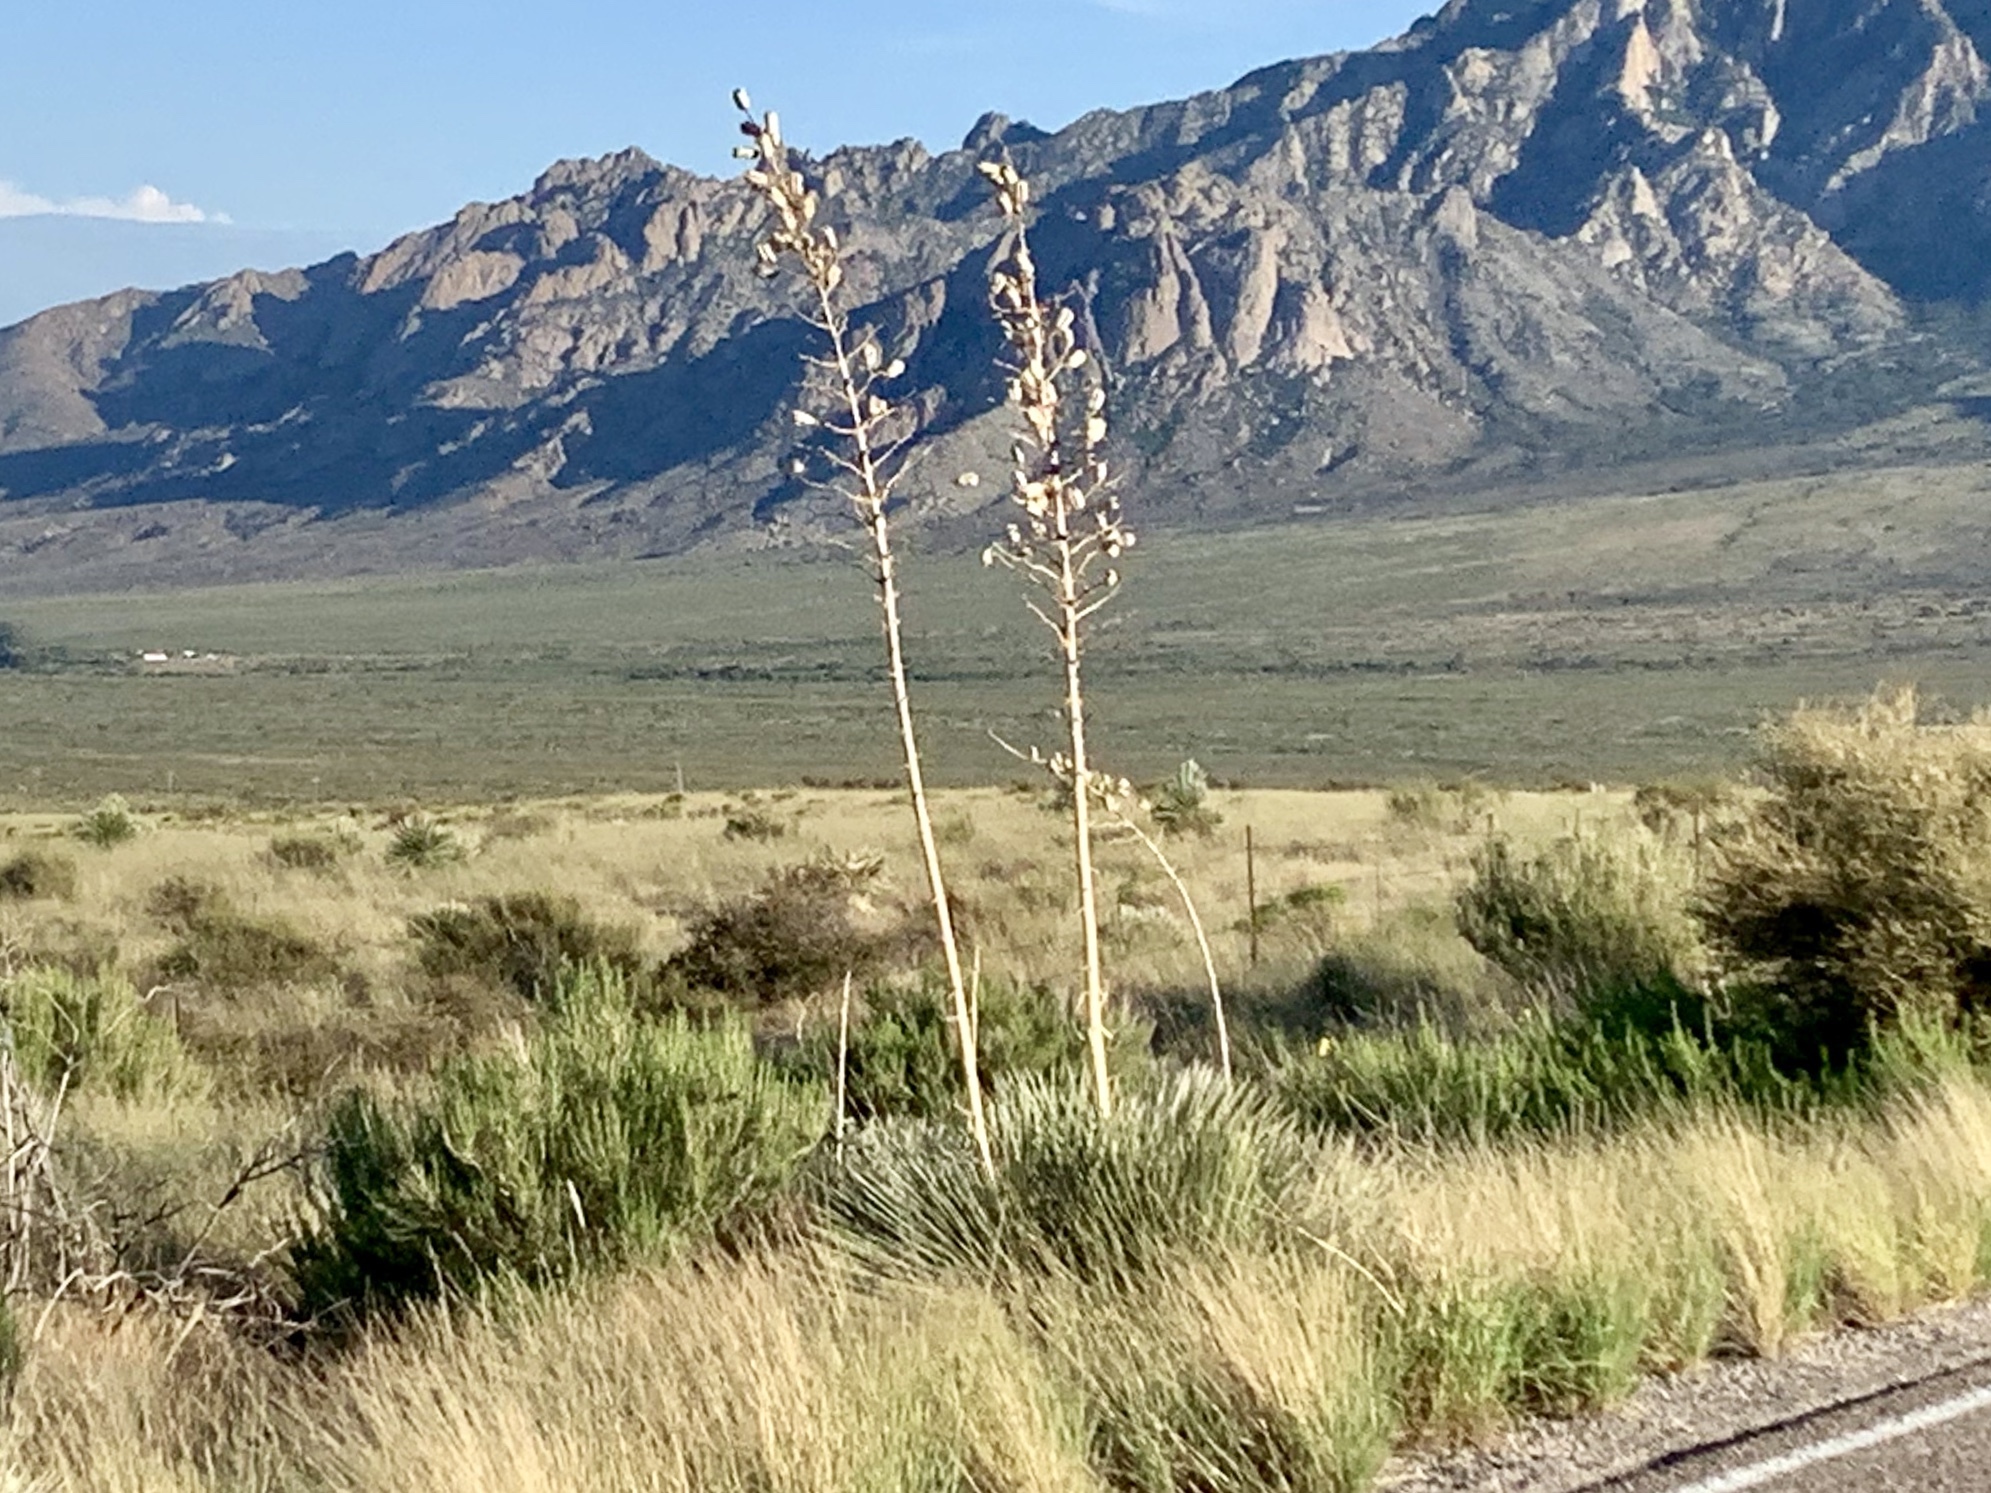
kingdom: Plantae
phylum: Tracheophyta
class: Liliopsida
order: Asparagales
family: Asparagaceae
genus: Yucca
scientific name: Yucca elata
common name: Palmella
